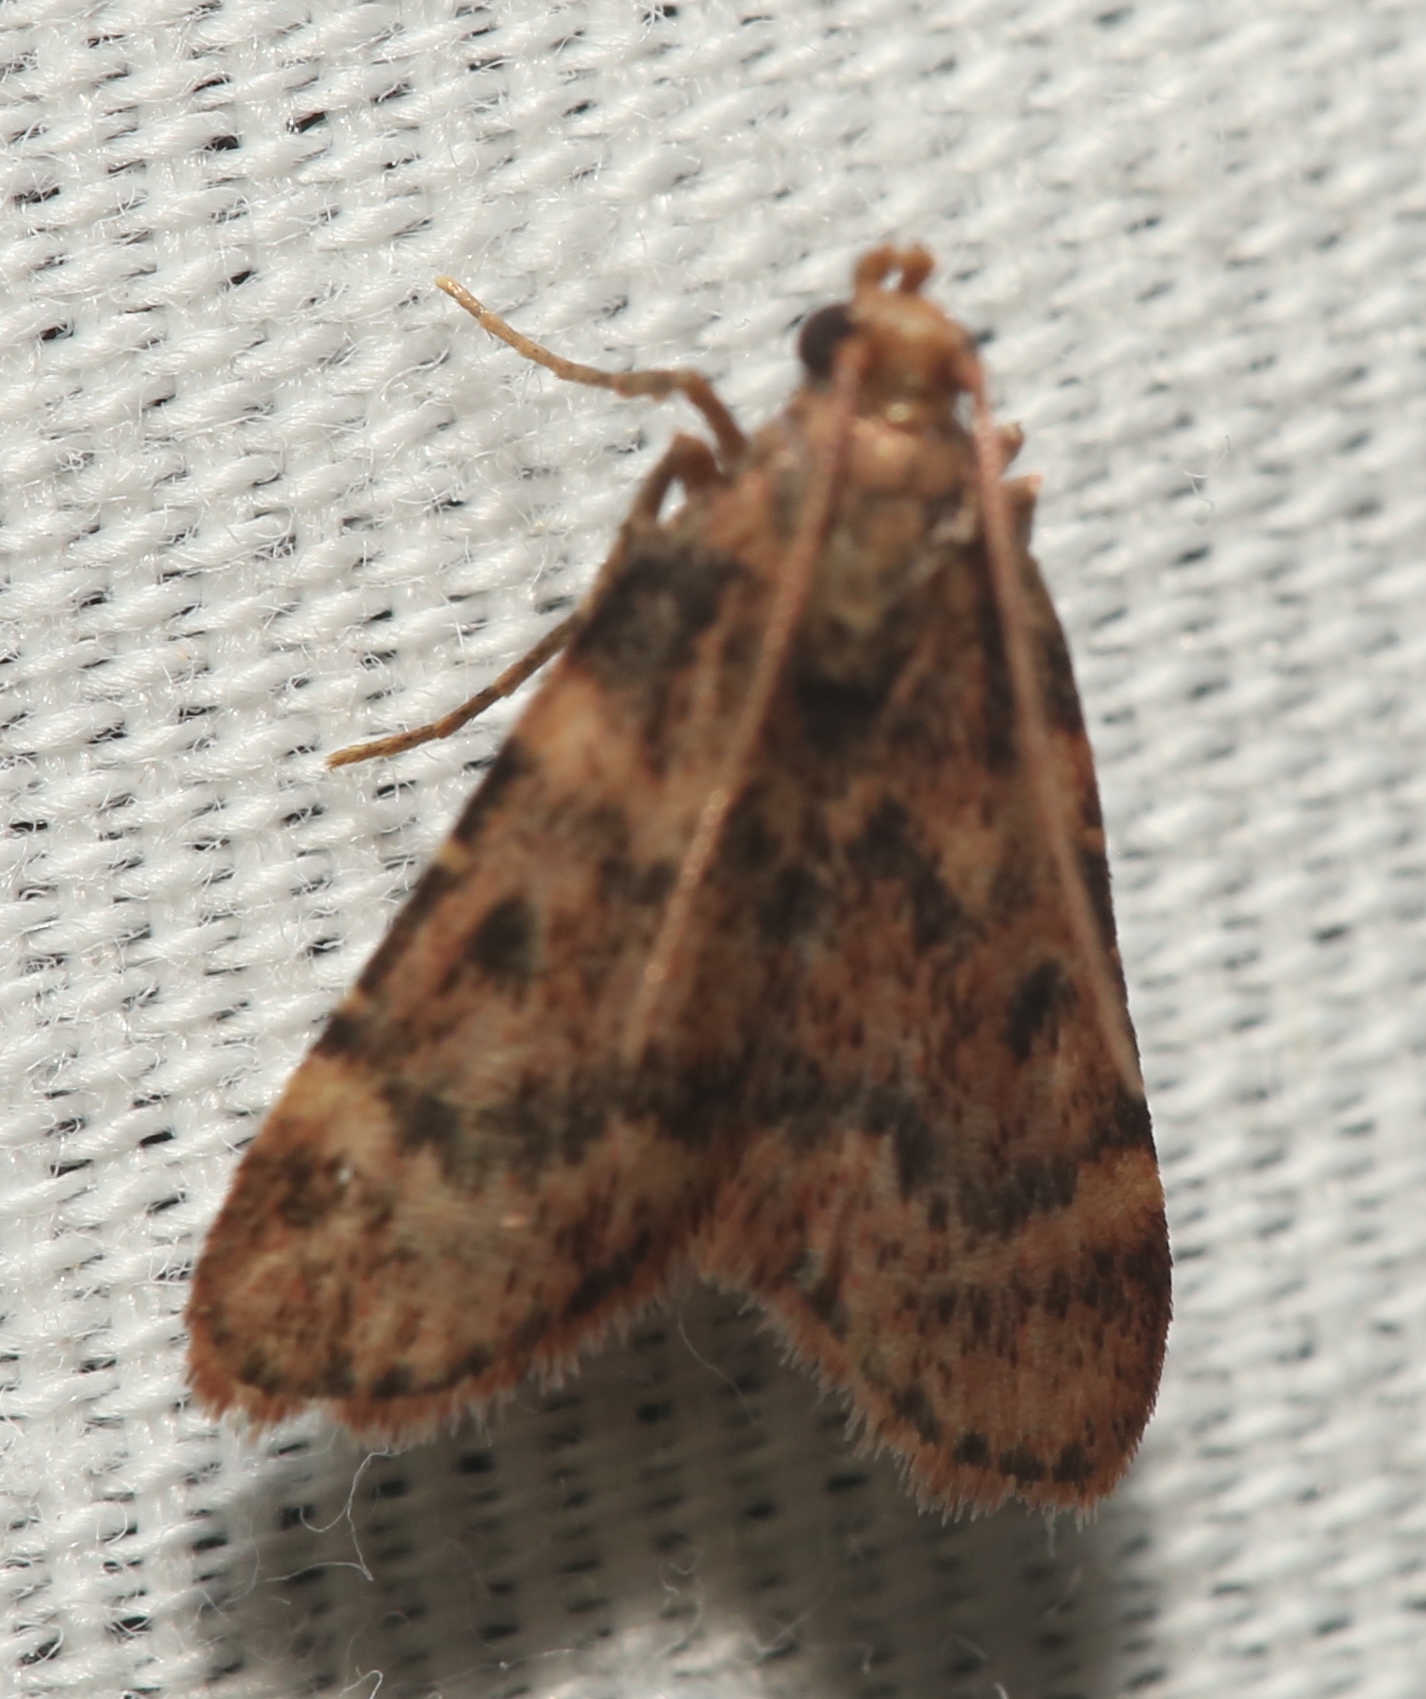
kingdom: Animalia
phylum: Arthropoda
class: Insecta
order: Lepidoptera
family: Pyralidae
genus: Aglossa
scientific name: Aglossa disciferalis
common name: Pink-masked pyralid moth
